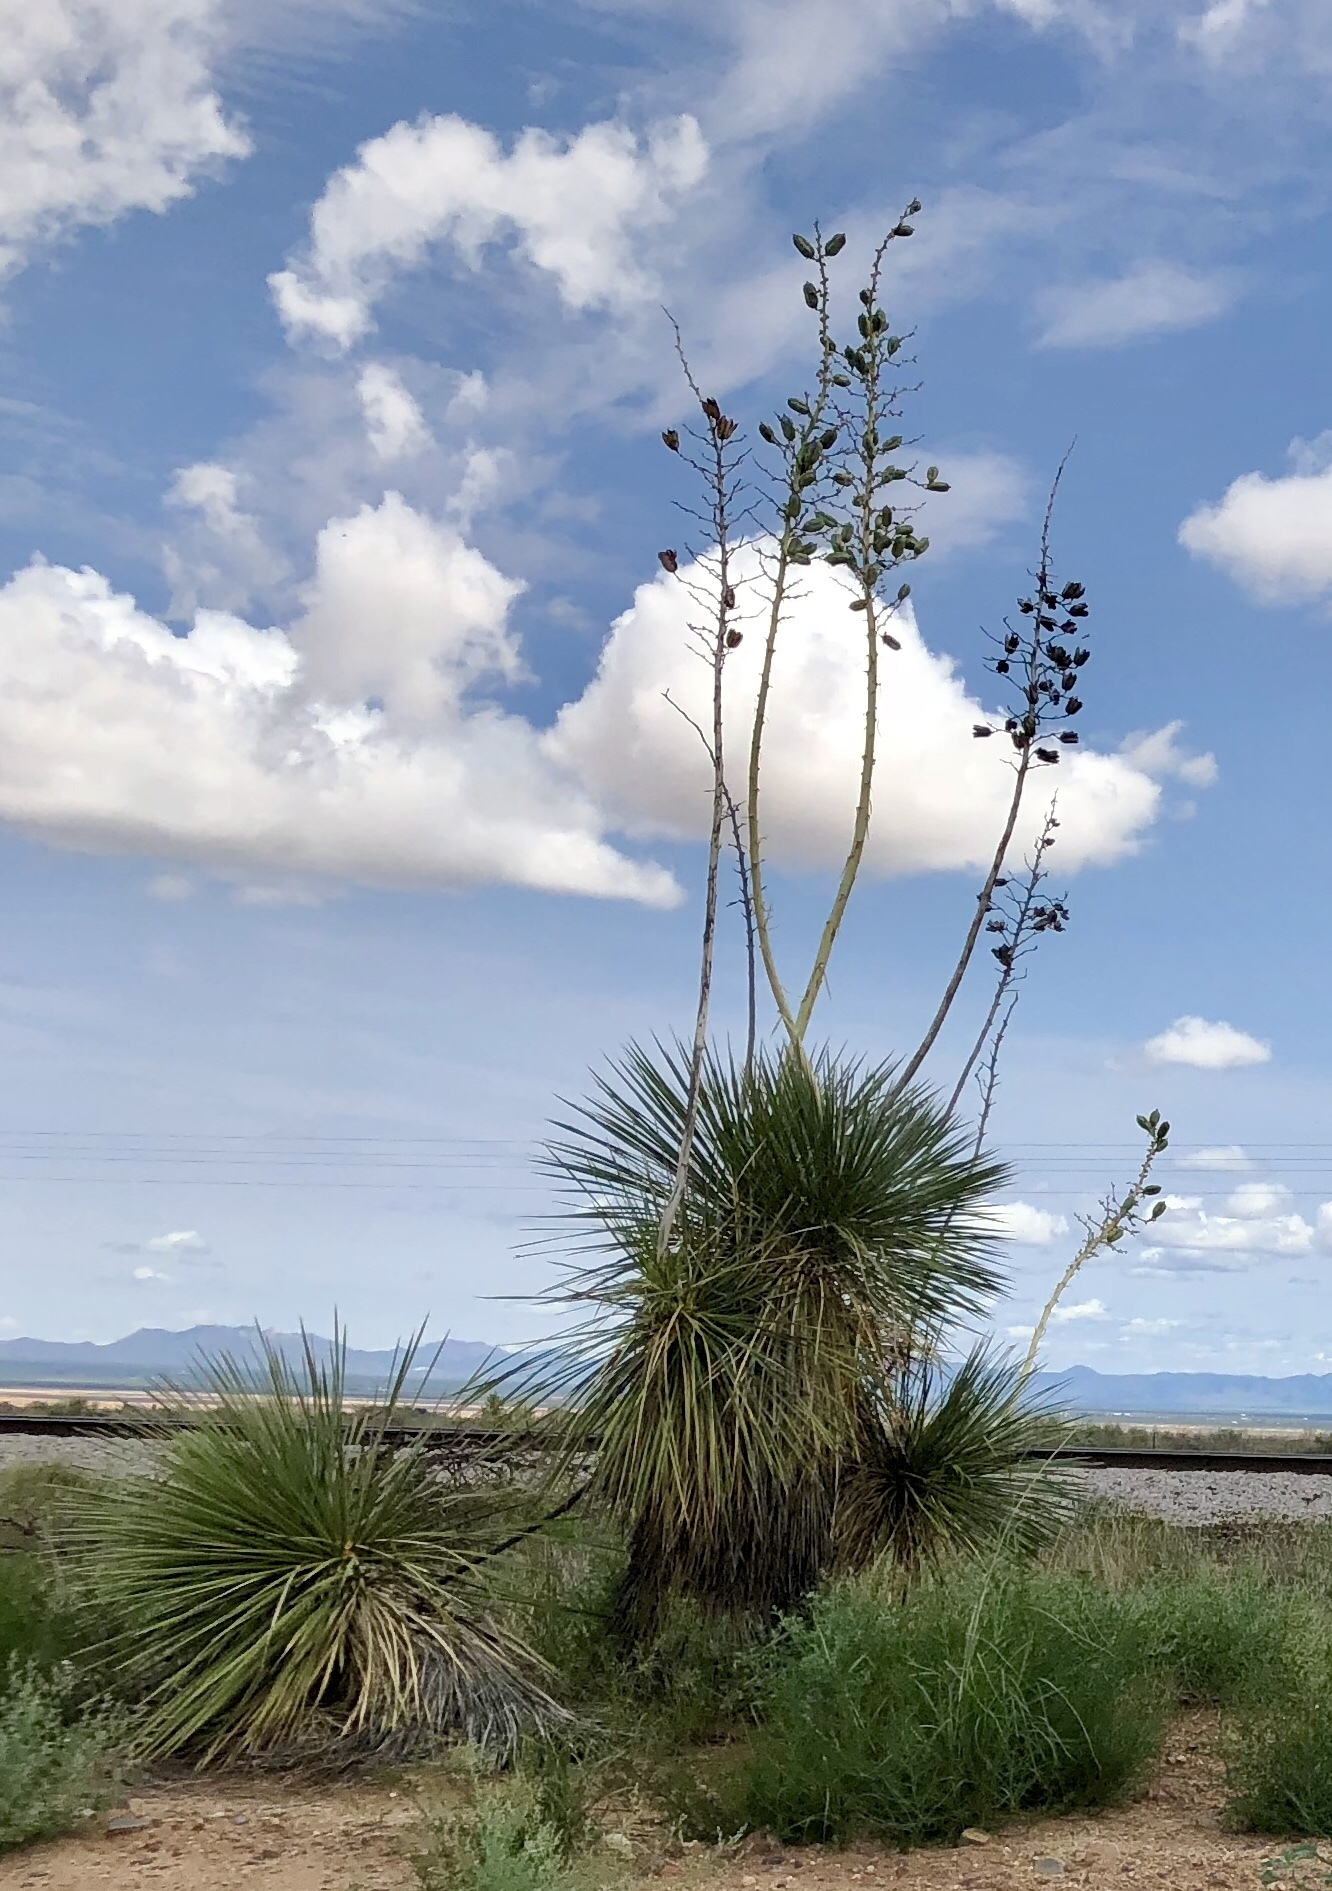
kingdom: Plantae
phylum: Tracheophyta
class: Liliopsida
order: Asparagales
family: Asparagaceae
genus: Yucca
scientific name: Yucca elata
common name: Palmella
